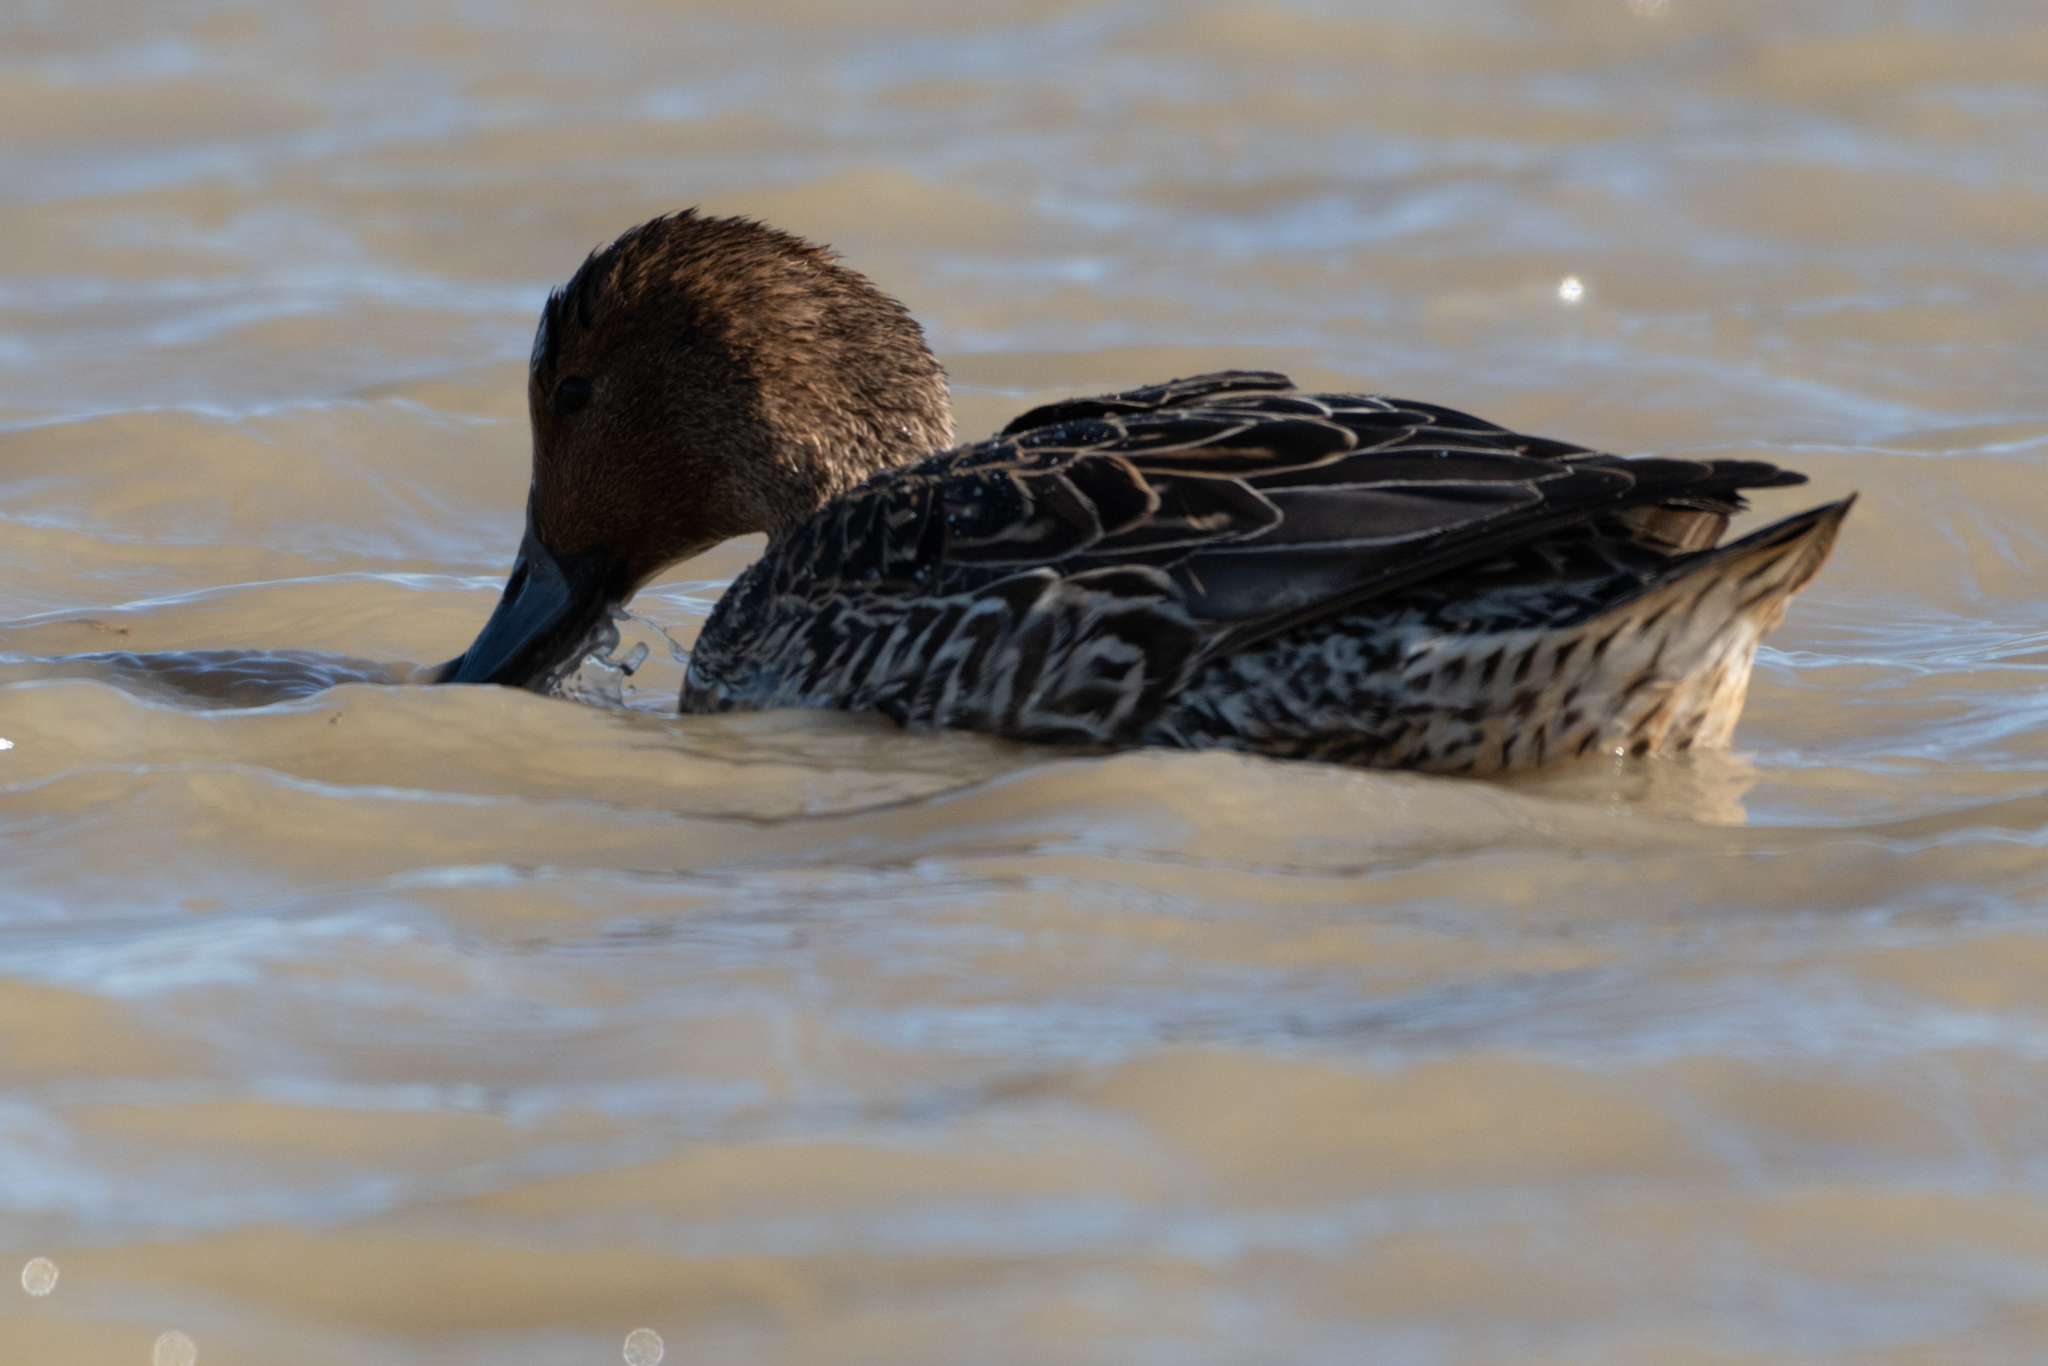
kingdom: Animalia
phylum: Chordata
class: Aves
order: Anseriformes
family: Anatidae
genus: Anas
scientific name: Anas acuta
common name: Northern pintail
